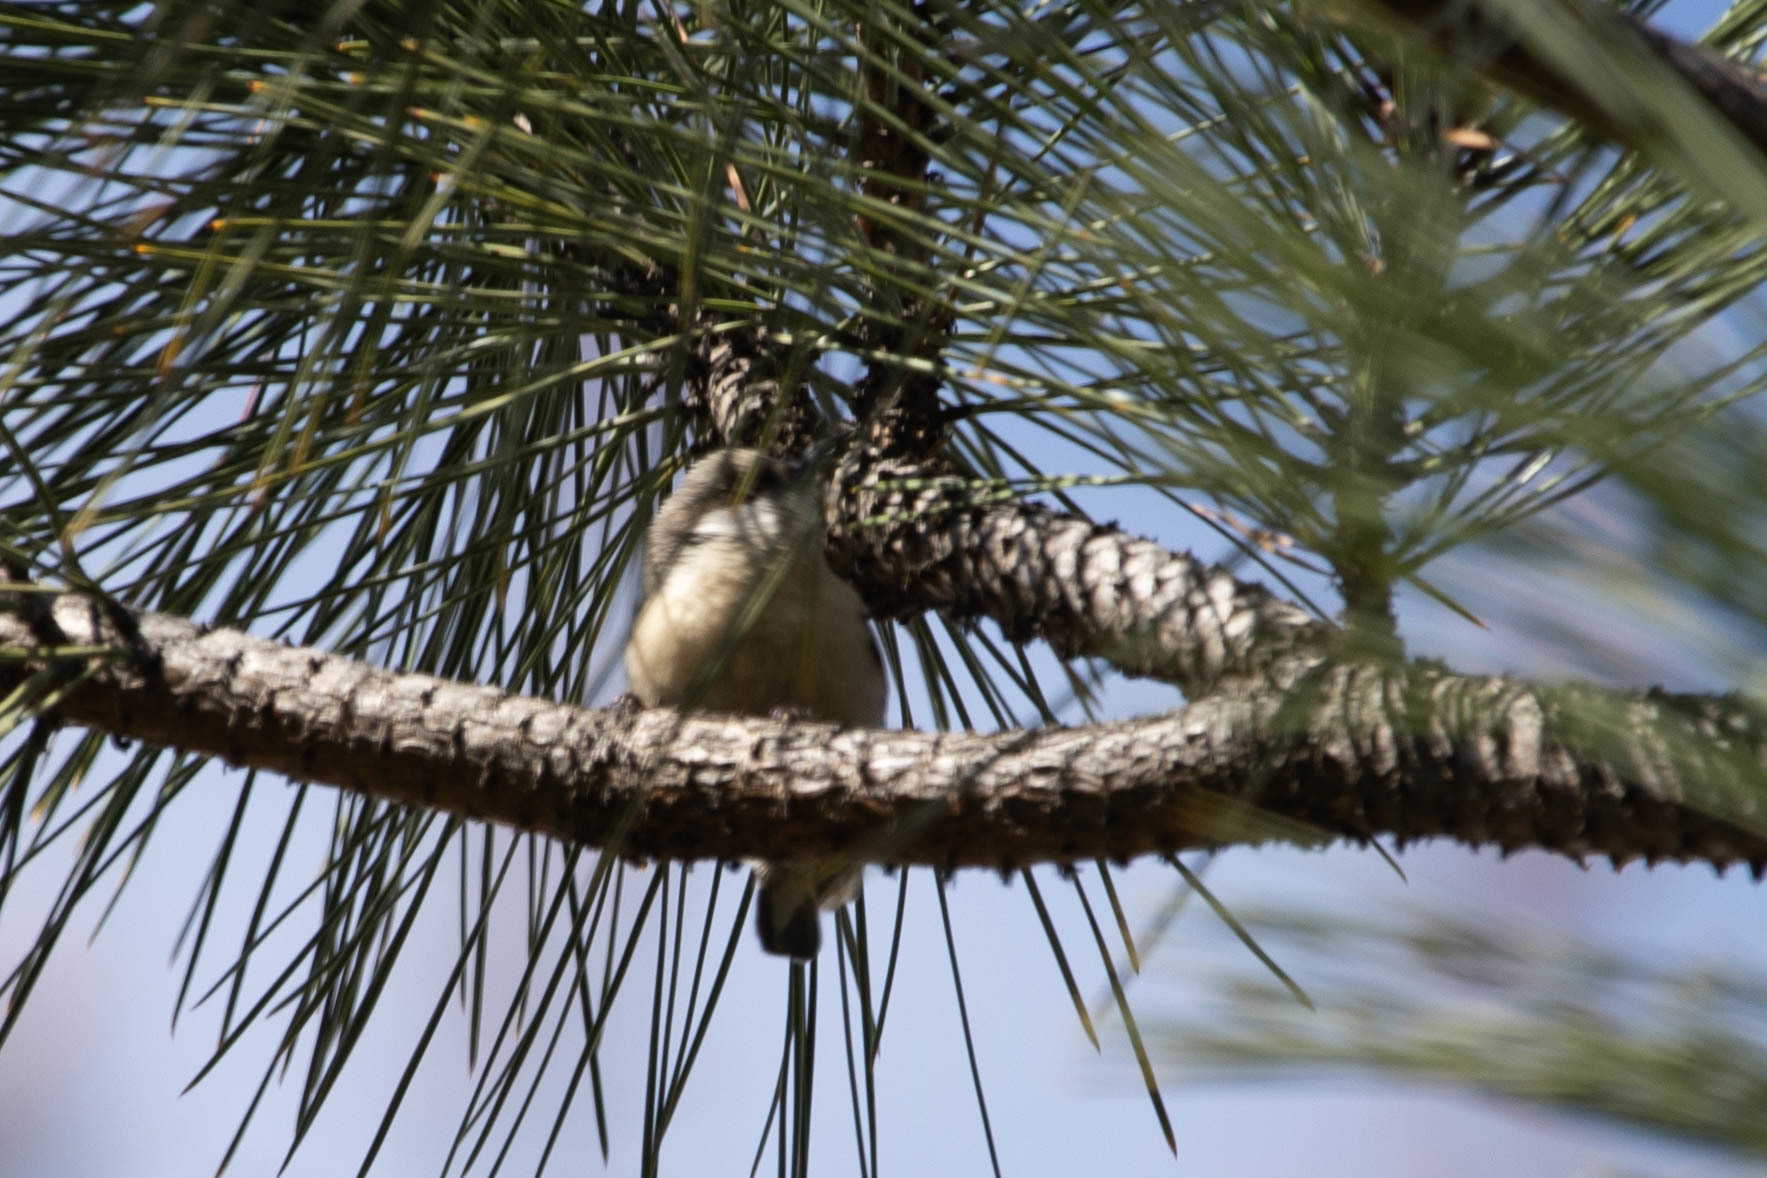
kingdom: Animalia
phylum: Chordata
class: Aves
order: Passeriformes
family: Sittidae
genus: Sitta
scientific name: Sitta pygmaea
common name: Pygmy nuthatch
